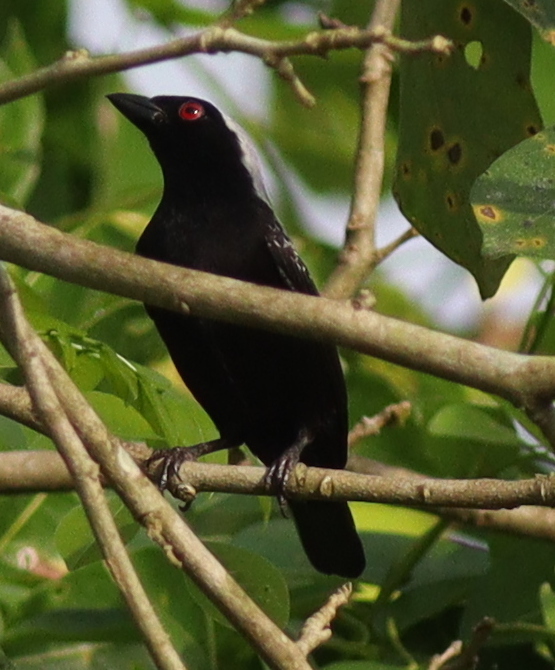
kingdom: Animalia
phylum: Chordata
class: Aves
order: Passeriformes
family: Estrildidae
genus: Nigrita
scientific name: Nigrita canicapillus
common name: Grey-headed nigrita
